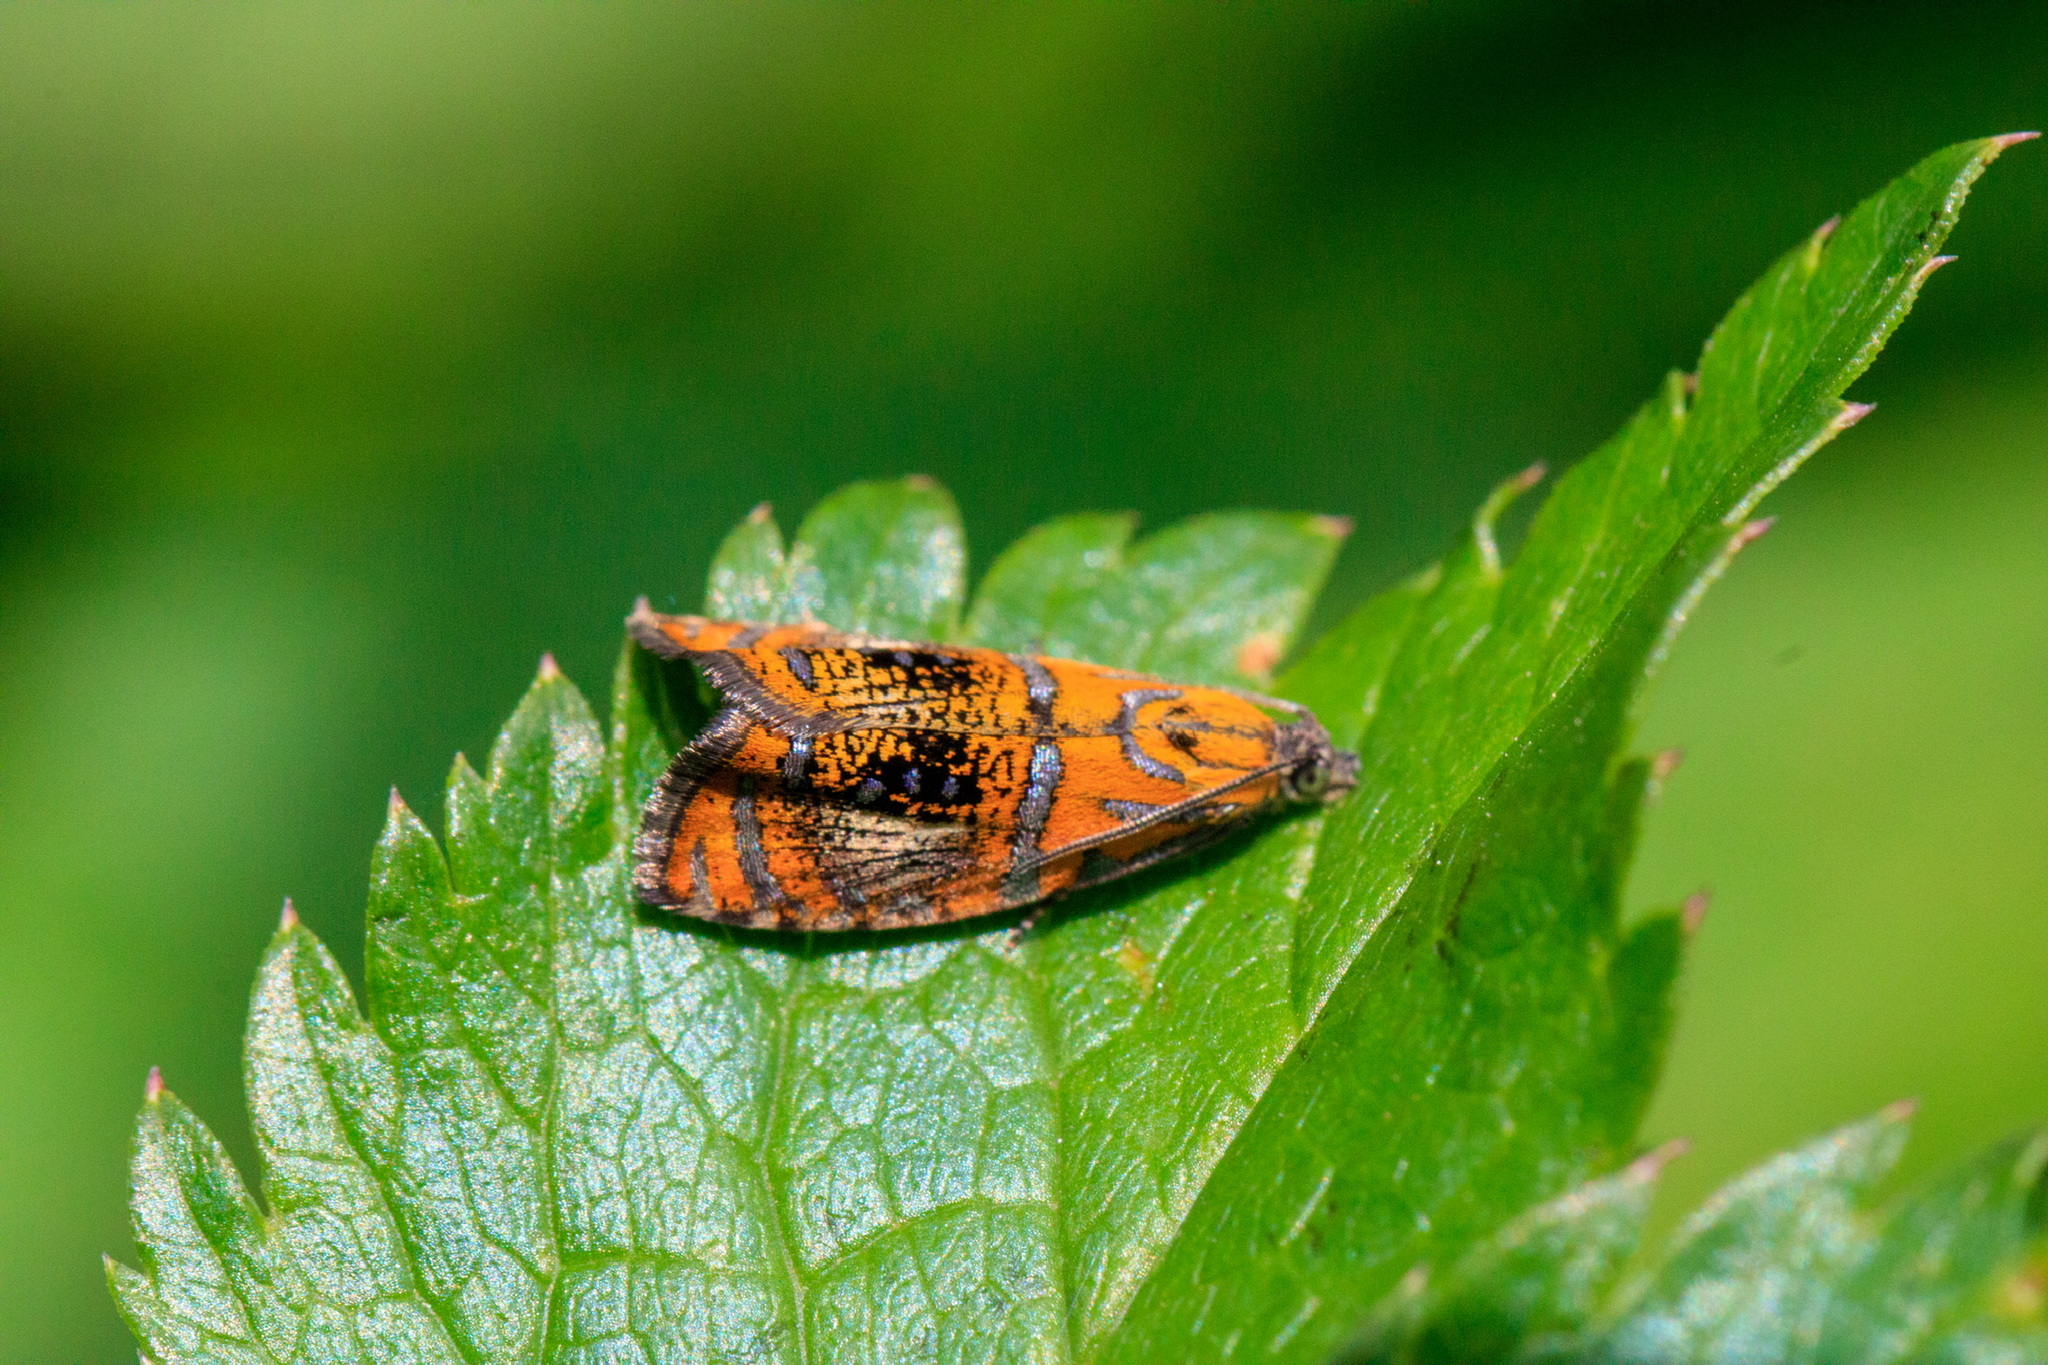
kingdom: Animalia
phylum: Arthropoda
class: Insecta
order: Lepidoptera
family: Tortricidae
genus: Olethreutes
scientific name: Olethreutes arcuella
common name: Arched marble
